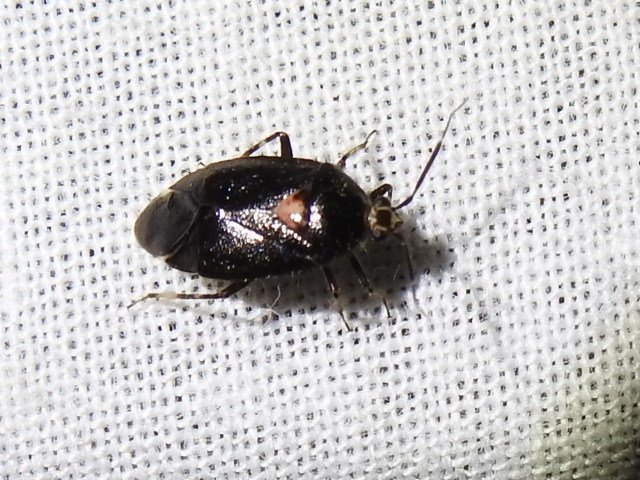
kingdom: Animalia
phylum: Arthropoda
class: Insecta
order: Hemiptera
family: Miridae
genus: Deraeocoris
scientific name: Deraeocoris sayi
